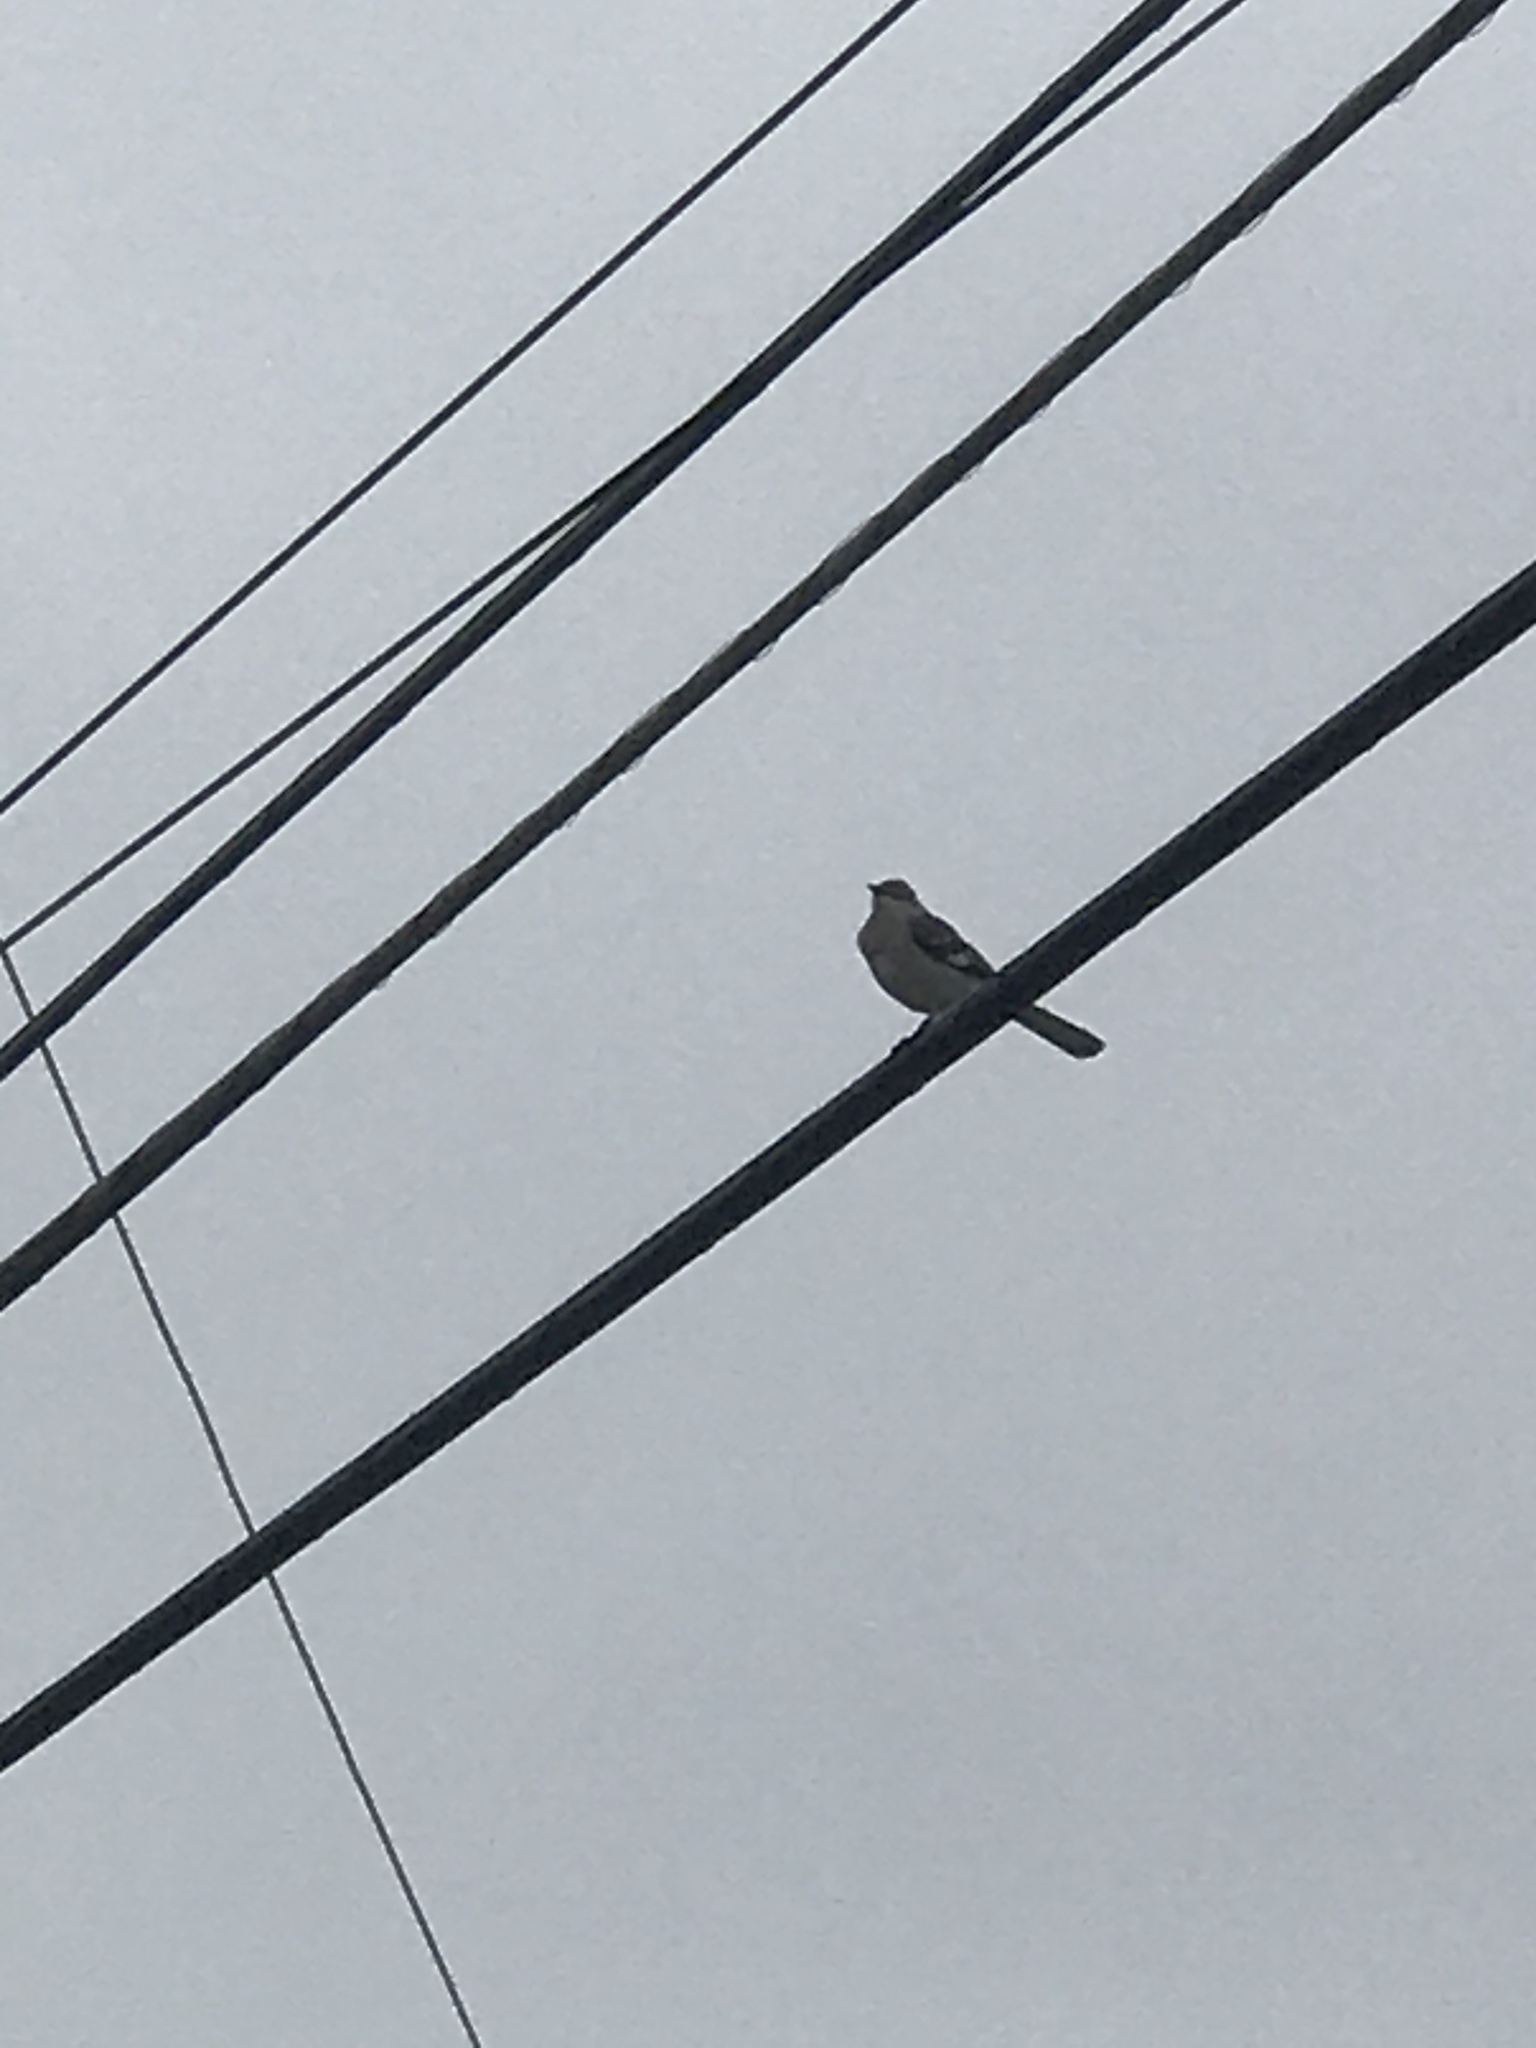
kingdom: Animalia
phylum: Chordata
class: Aves
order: Passeriformes
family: Mimidae
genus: Mimus
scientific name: Mimus polyglottos
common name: Northern mockingbird
